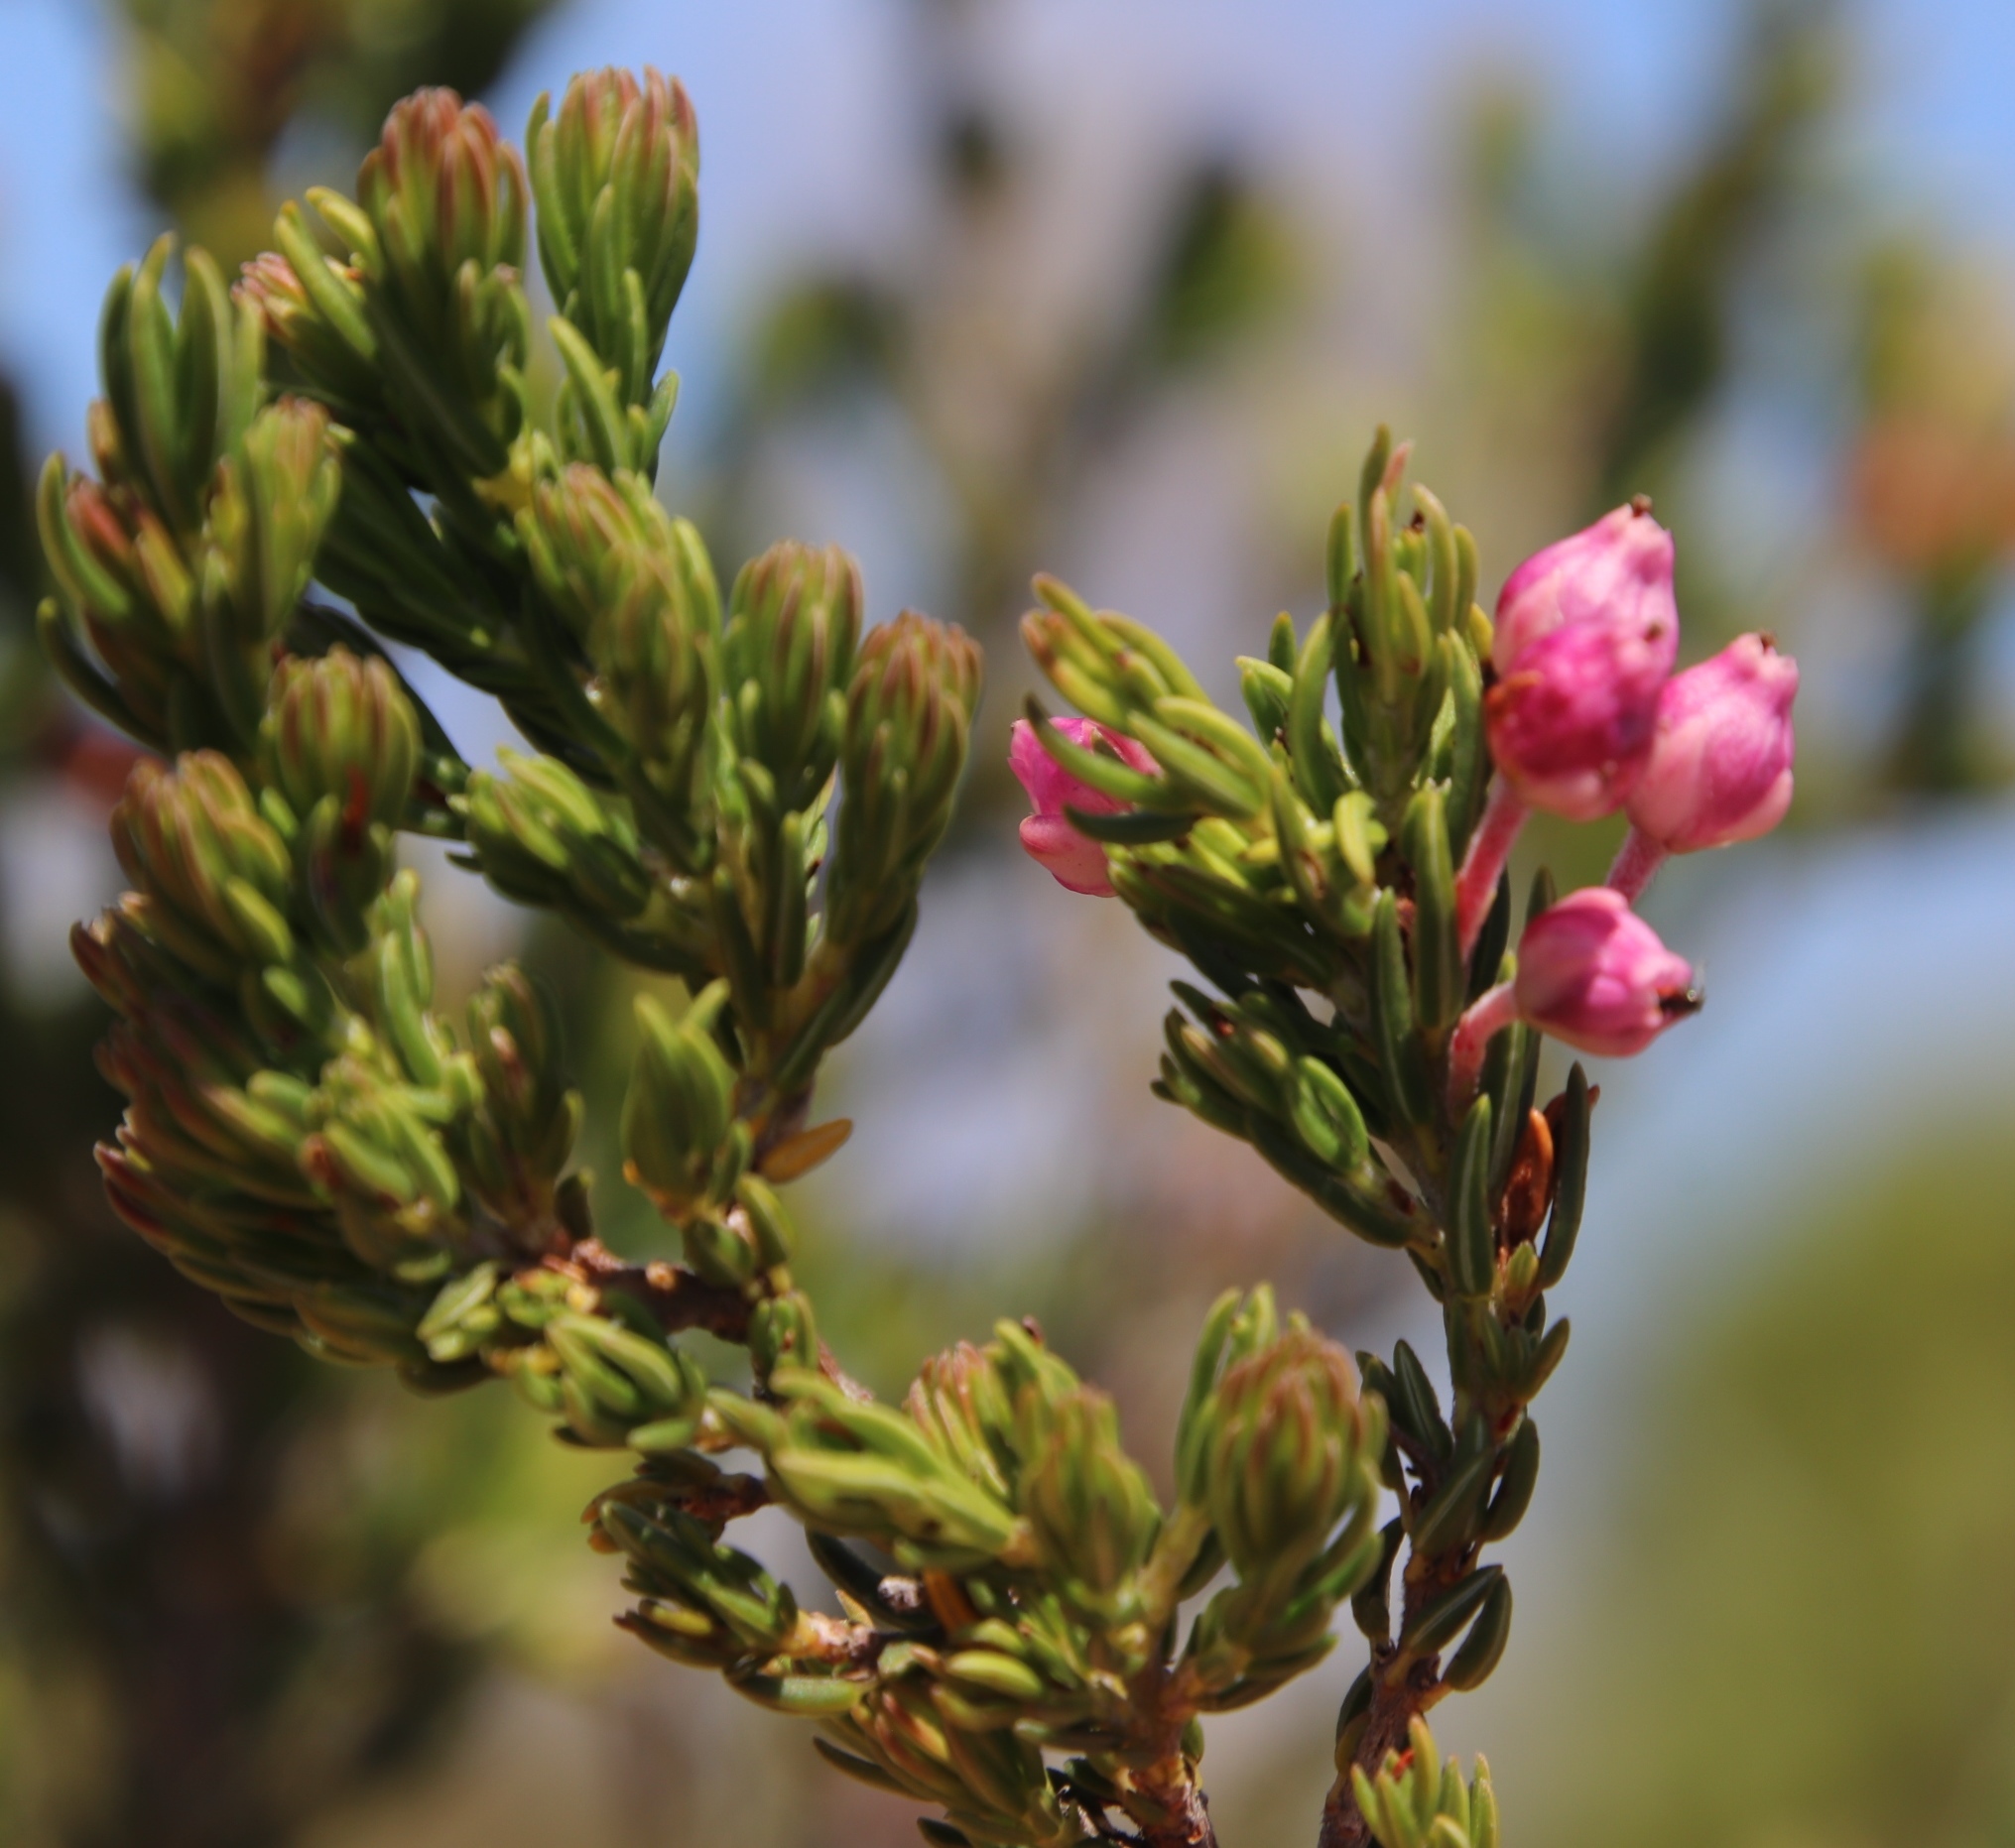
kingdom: Plantae
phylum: Tracheophyta
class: Magnoliopsida
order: Ericales
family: Ericaceae
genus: Erica
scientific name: Erica irregularis
